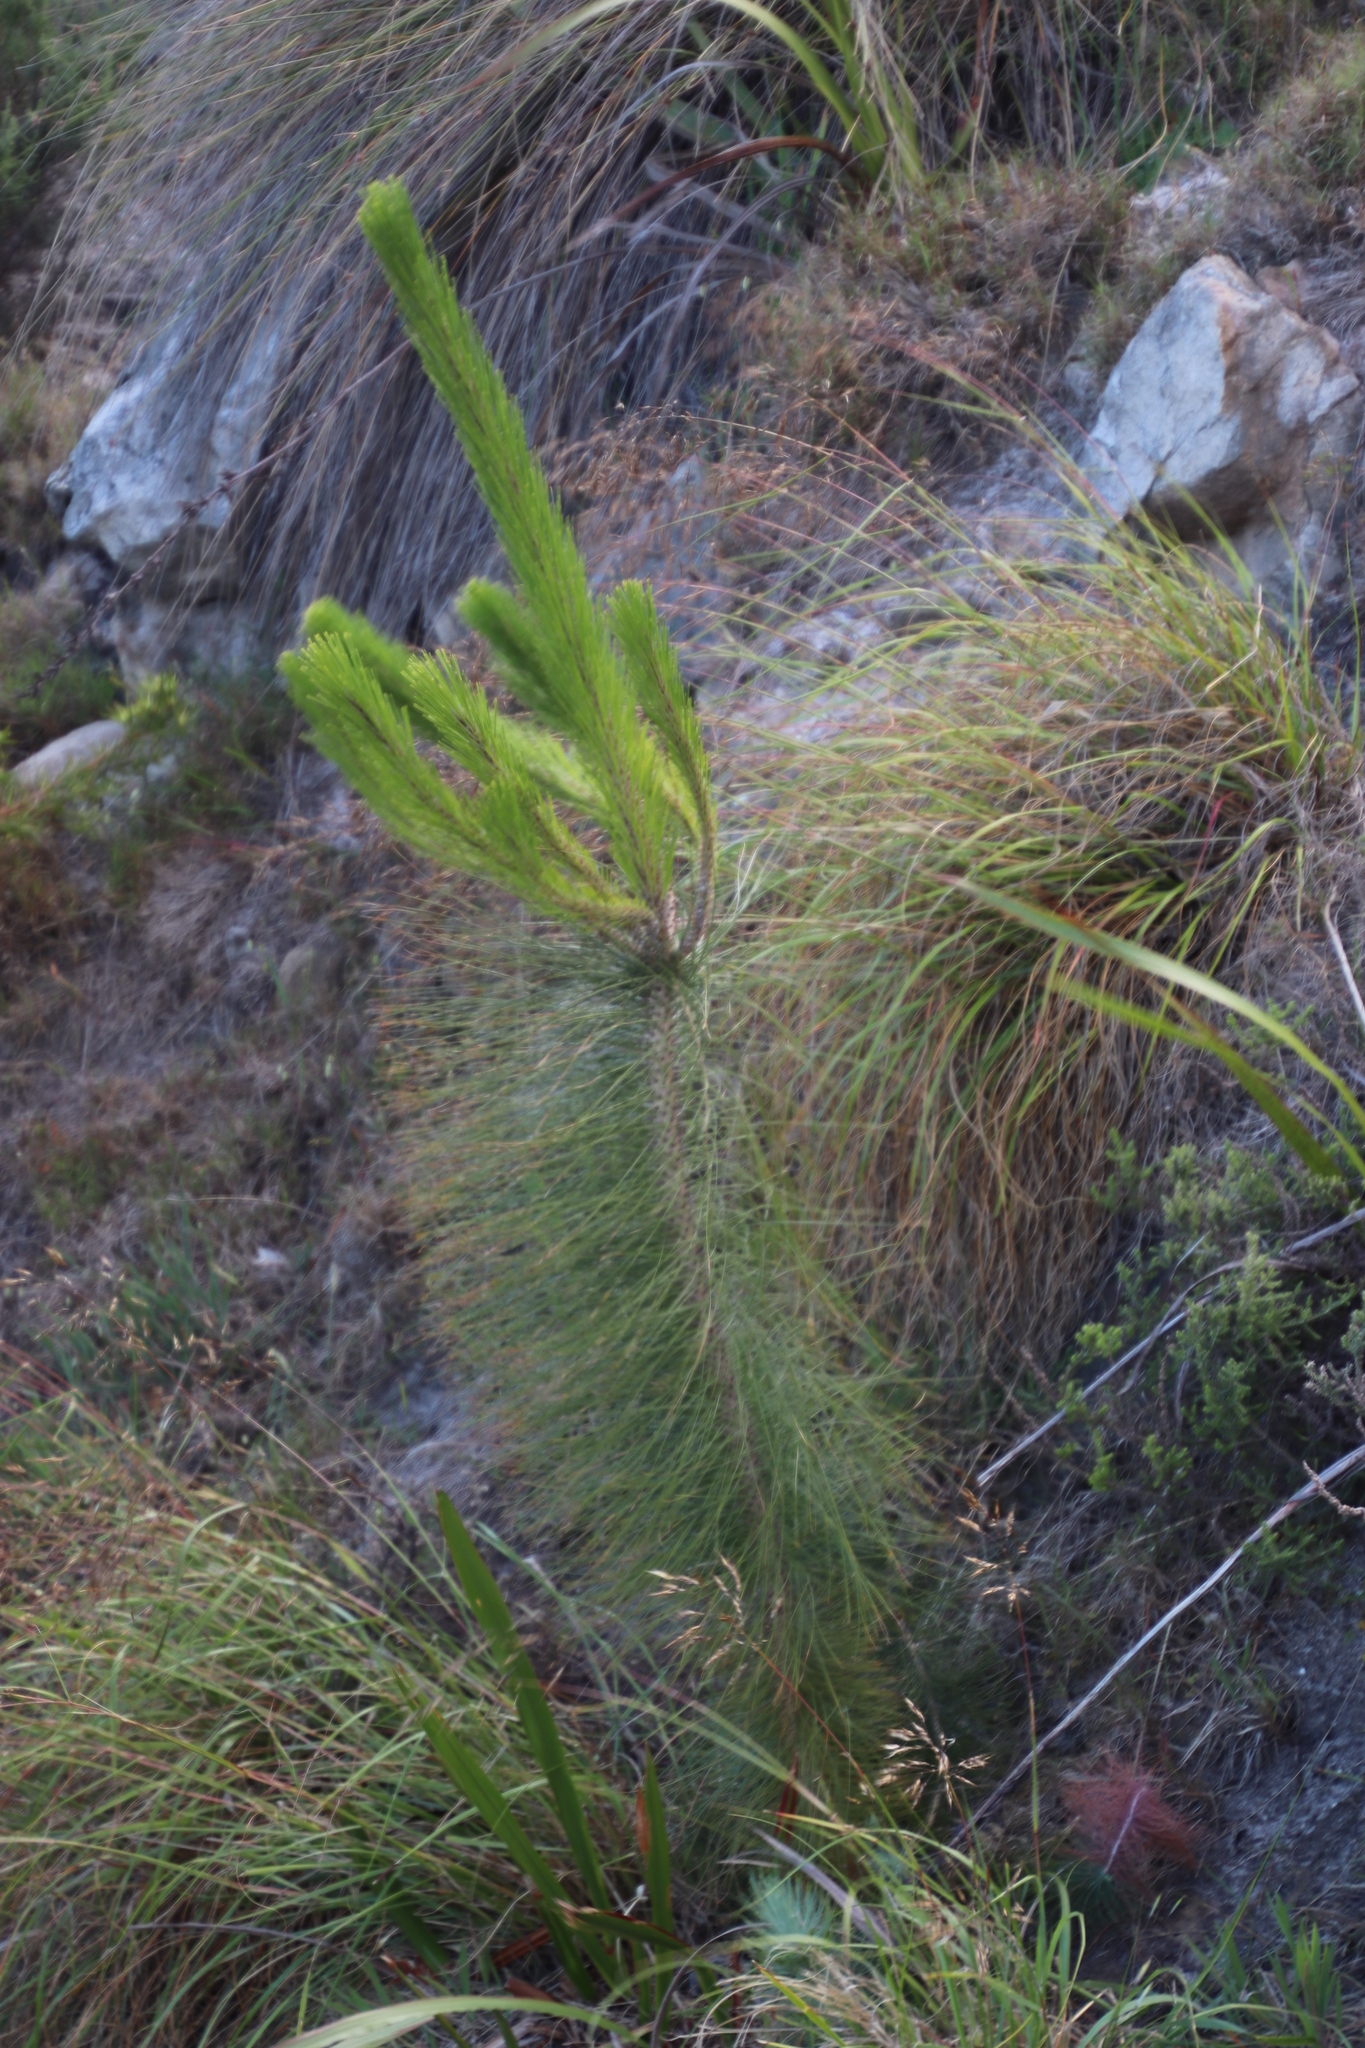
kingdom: Plantae
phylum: Tracheophyta
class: Pinopsida
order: Pinales
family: Pinaceae
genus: Pinus
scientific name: Pinus canariensis
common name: Canary islands pine
